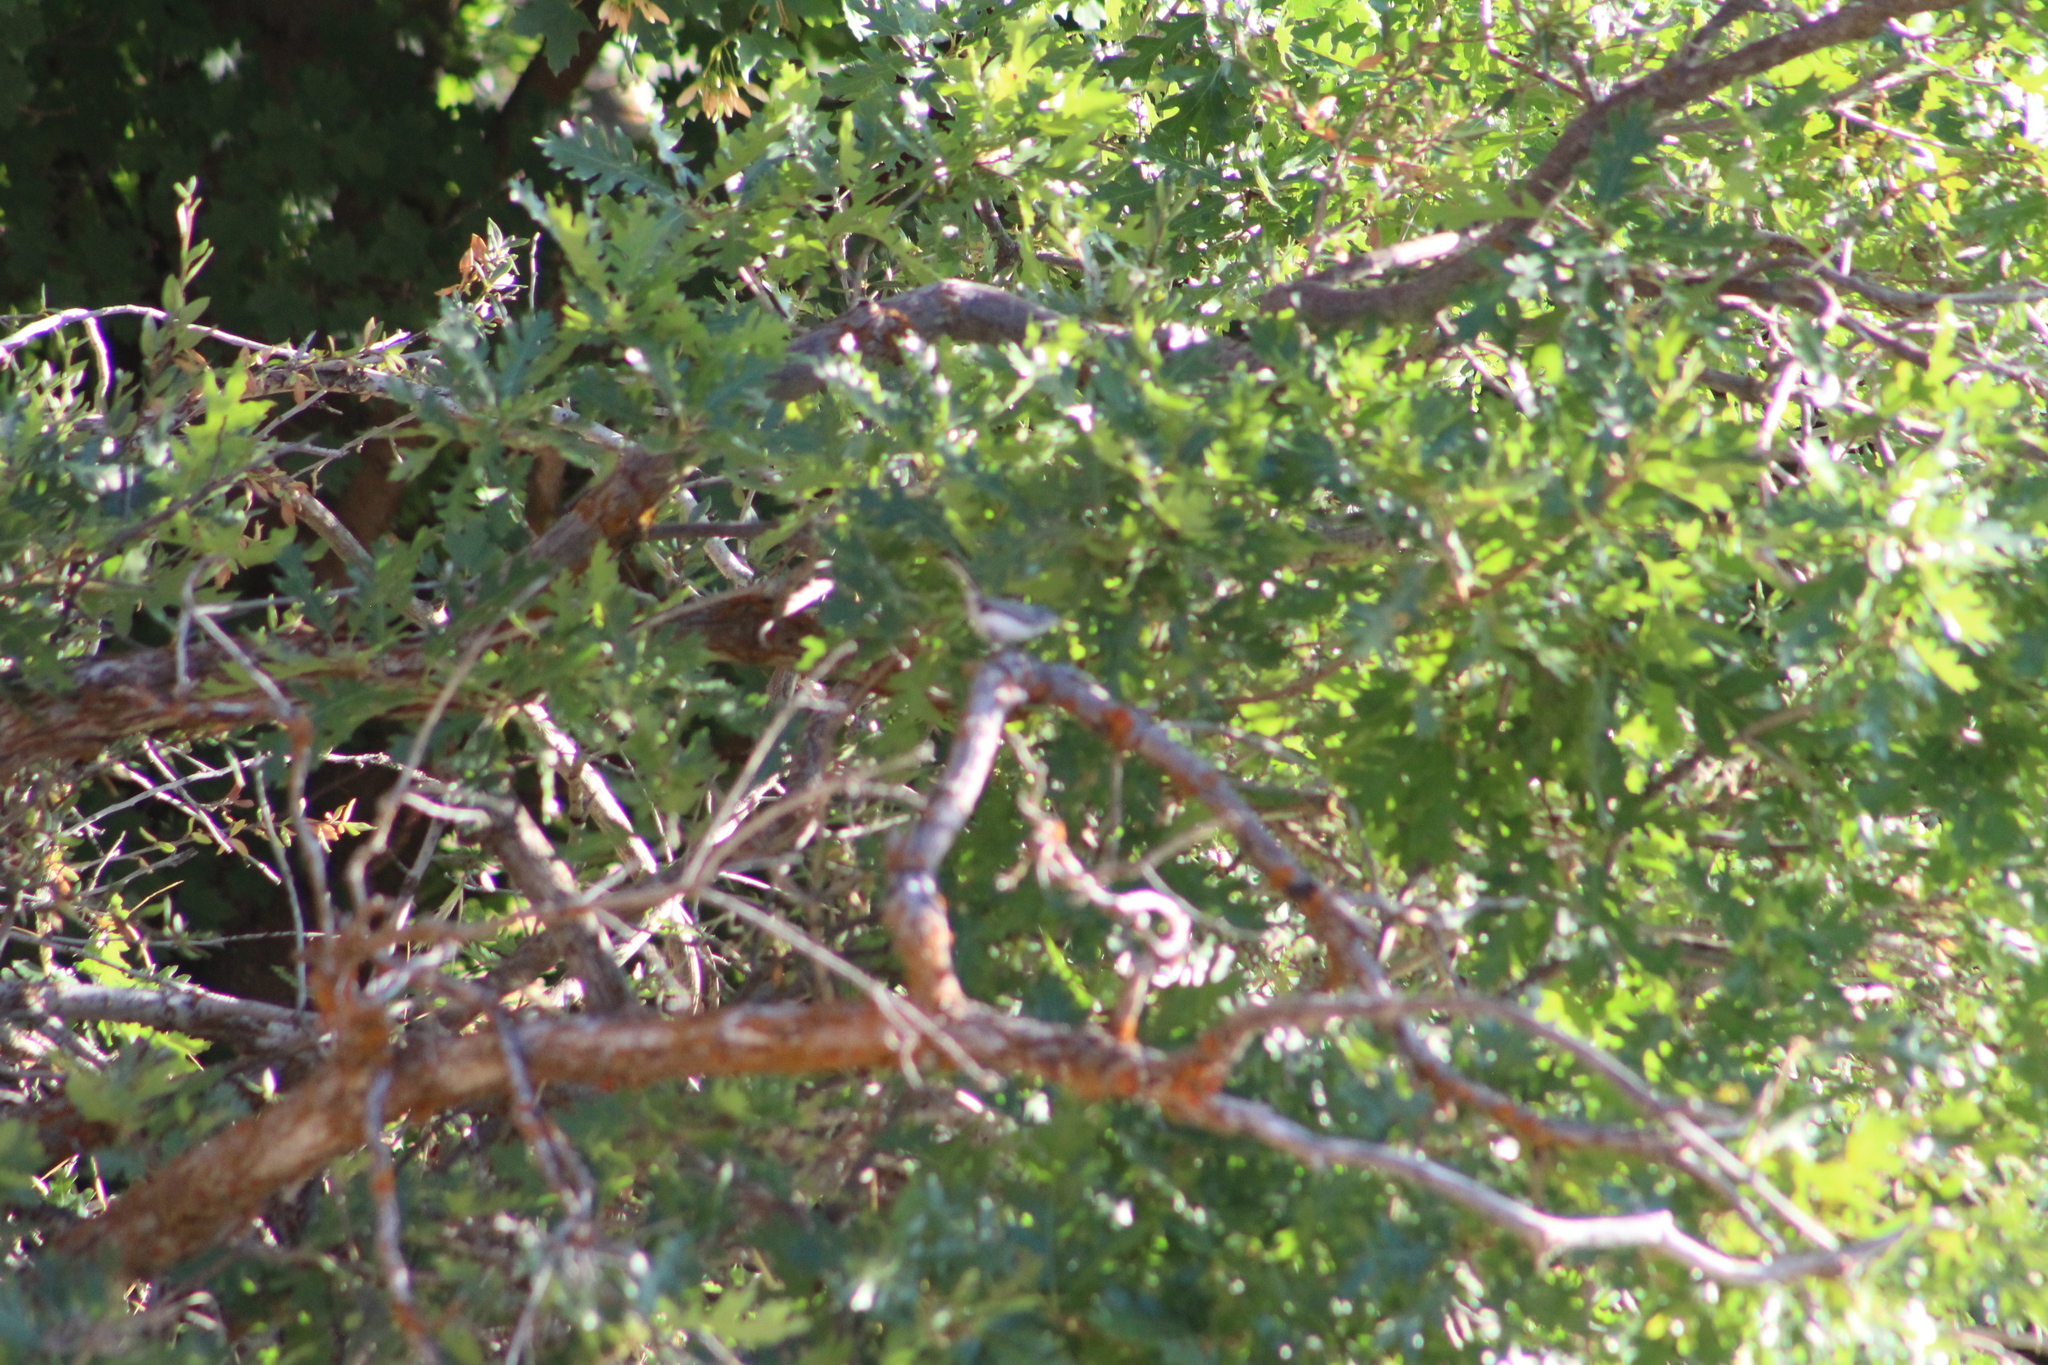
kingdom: Animalia
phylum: Chordata
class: Aves
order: Passeriformes
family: Polioptilidae
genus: Polioptila
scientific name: Polioptila caerulea
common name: Blue-gray gnatcatcher
